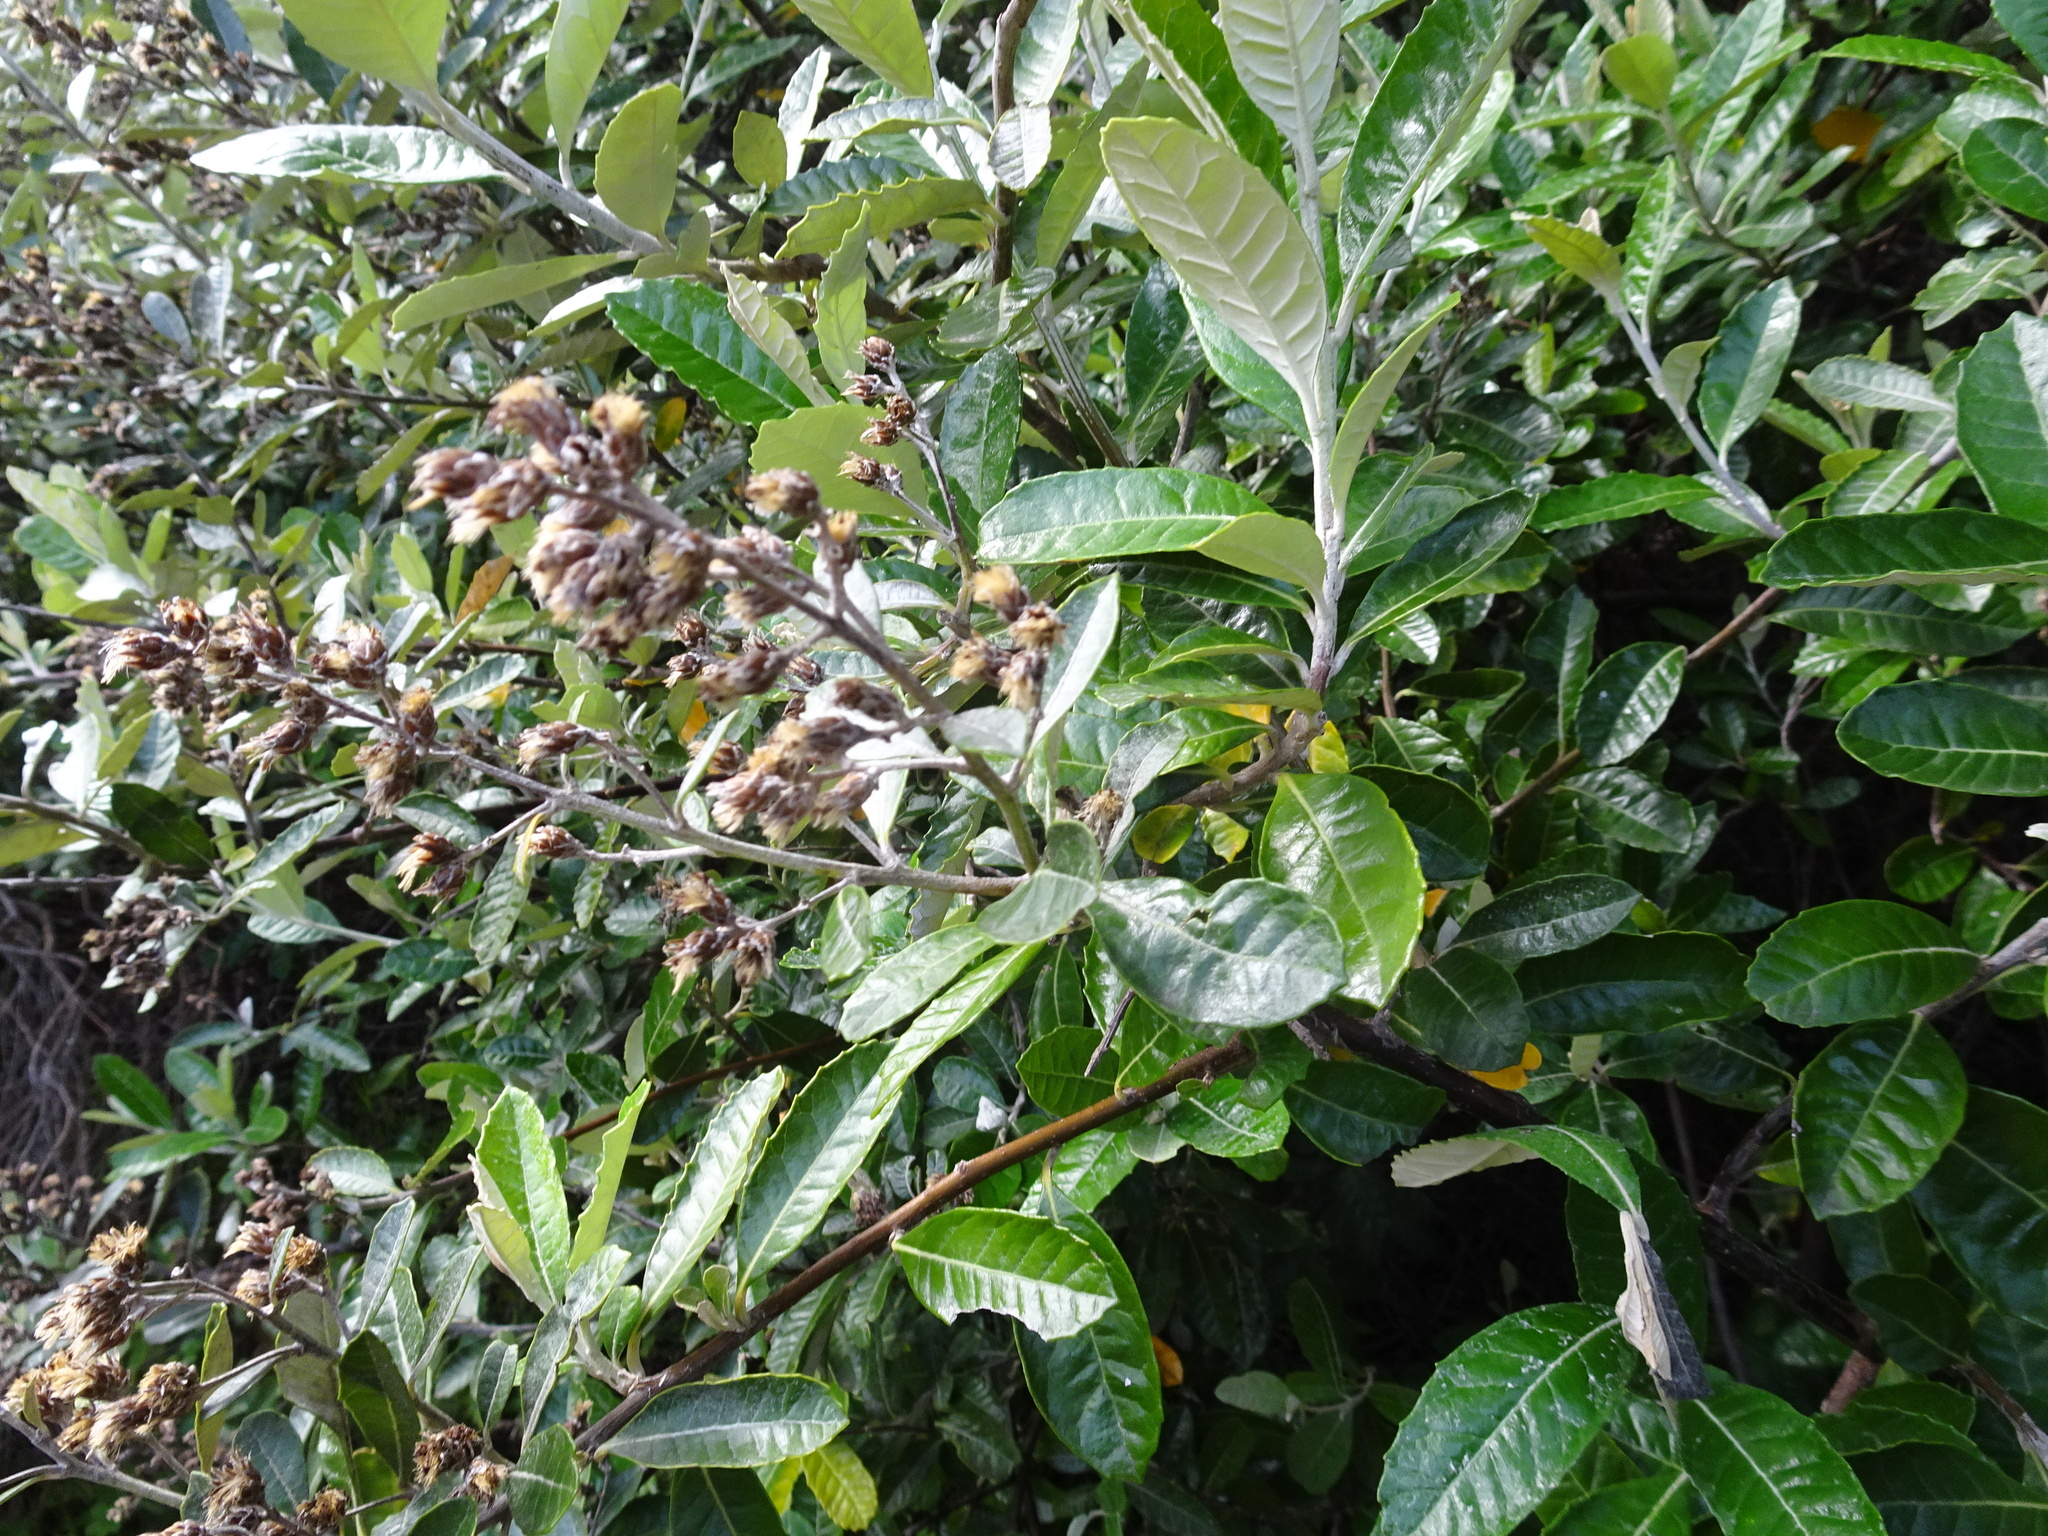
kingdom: Plantae
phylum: Tracheophyta
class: Magnoliopsida
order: Asterales
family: Asteraceae
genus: Brachylaena
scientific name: Brachylaena discolor
